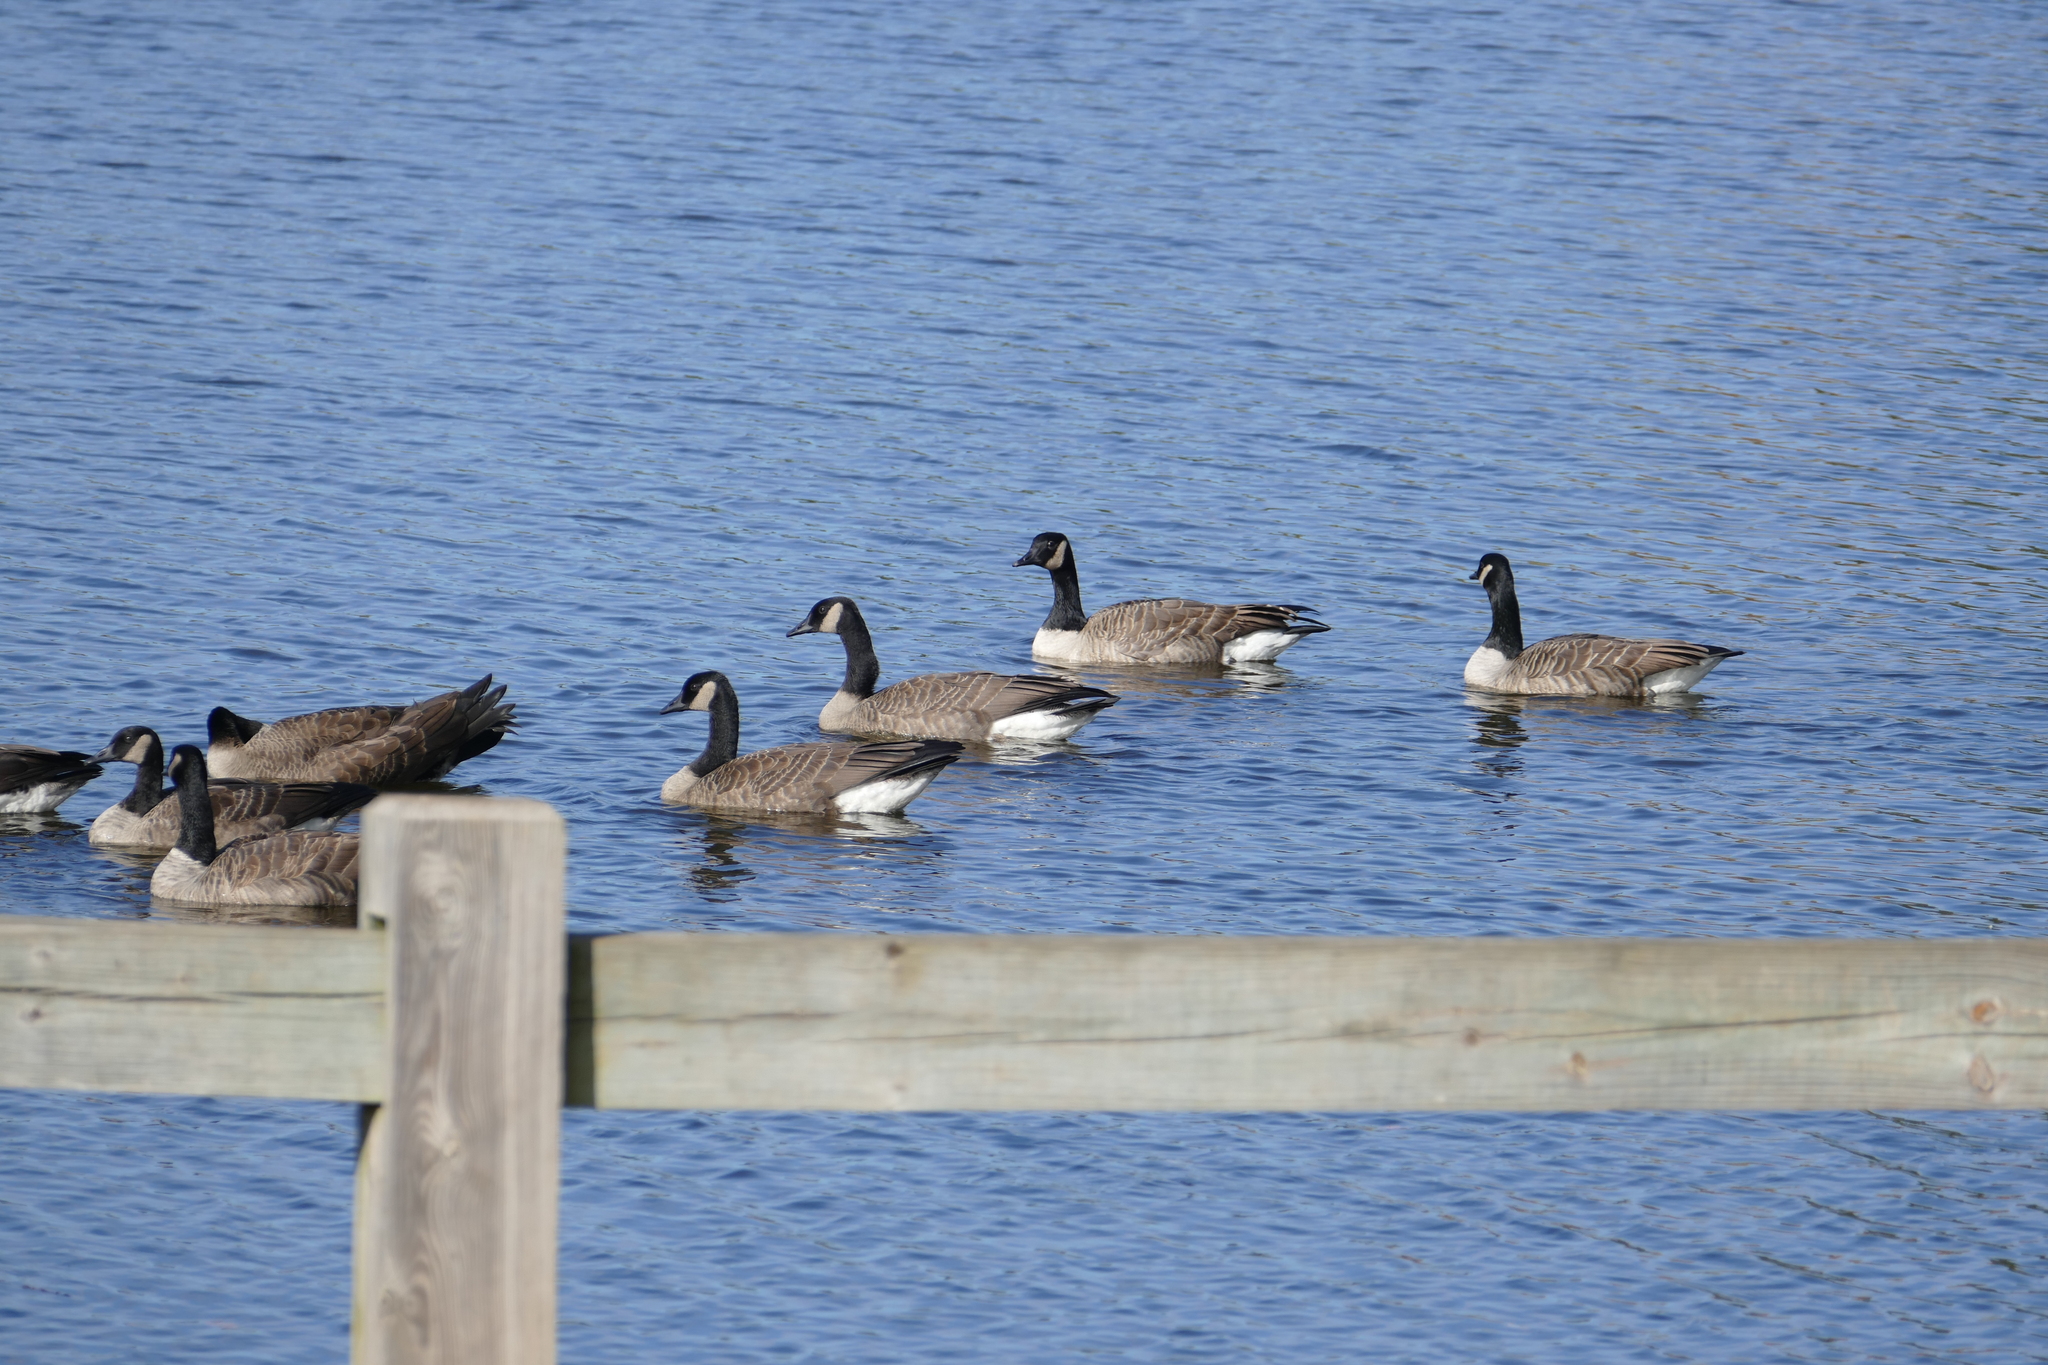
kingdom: Animalia
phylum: Chordata
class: Aves
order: Anseriformes
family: Anatidae
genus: Branta
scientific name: Branta canadensis
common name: Canada goose
